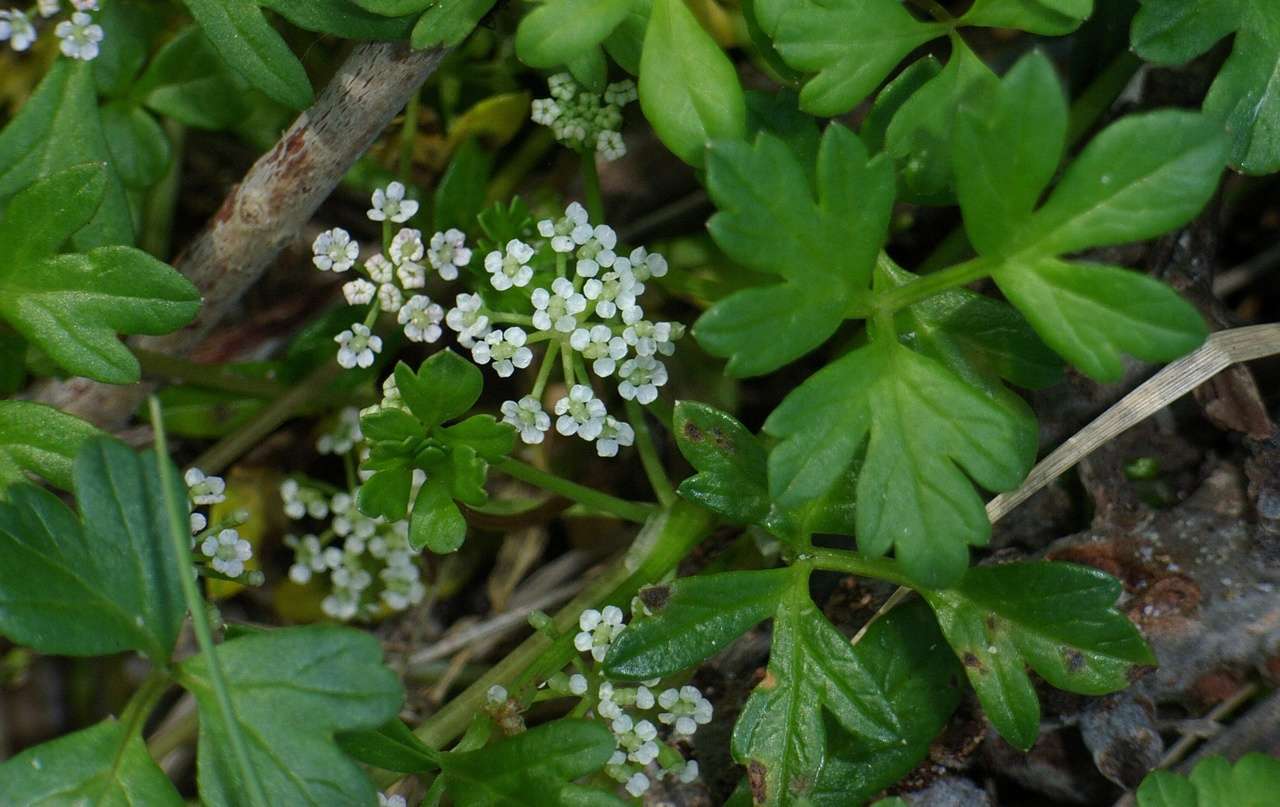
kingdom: Plantae
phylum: Tracheophyta
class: Magnoliopsida
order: Apiales
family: Apiaceae
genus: Apium
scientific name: Apium prostratum
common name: Prostrate marshwort
